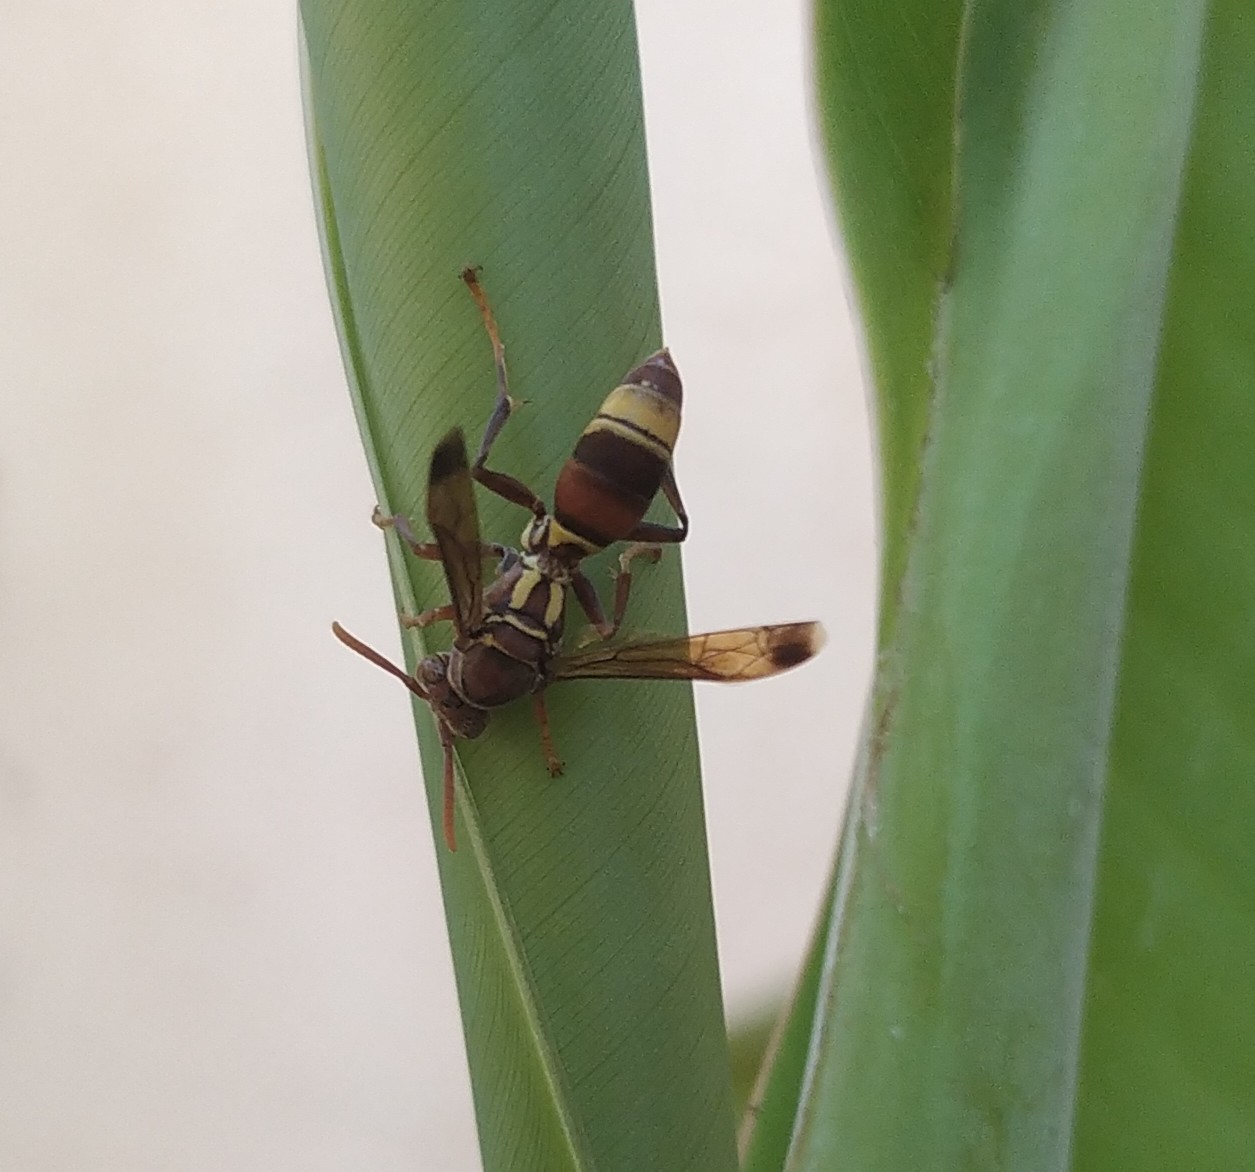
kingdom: Animalia
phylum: Arthropoda
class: Insecta
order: Hymenoptera
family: Eumenidae
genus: Polistes
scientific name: Polistes stigma
